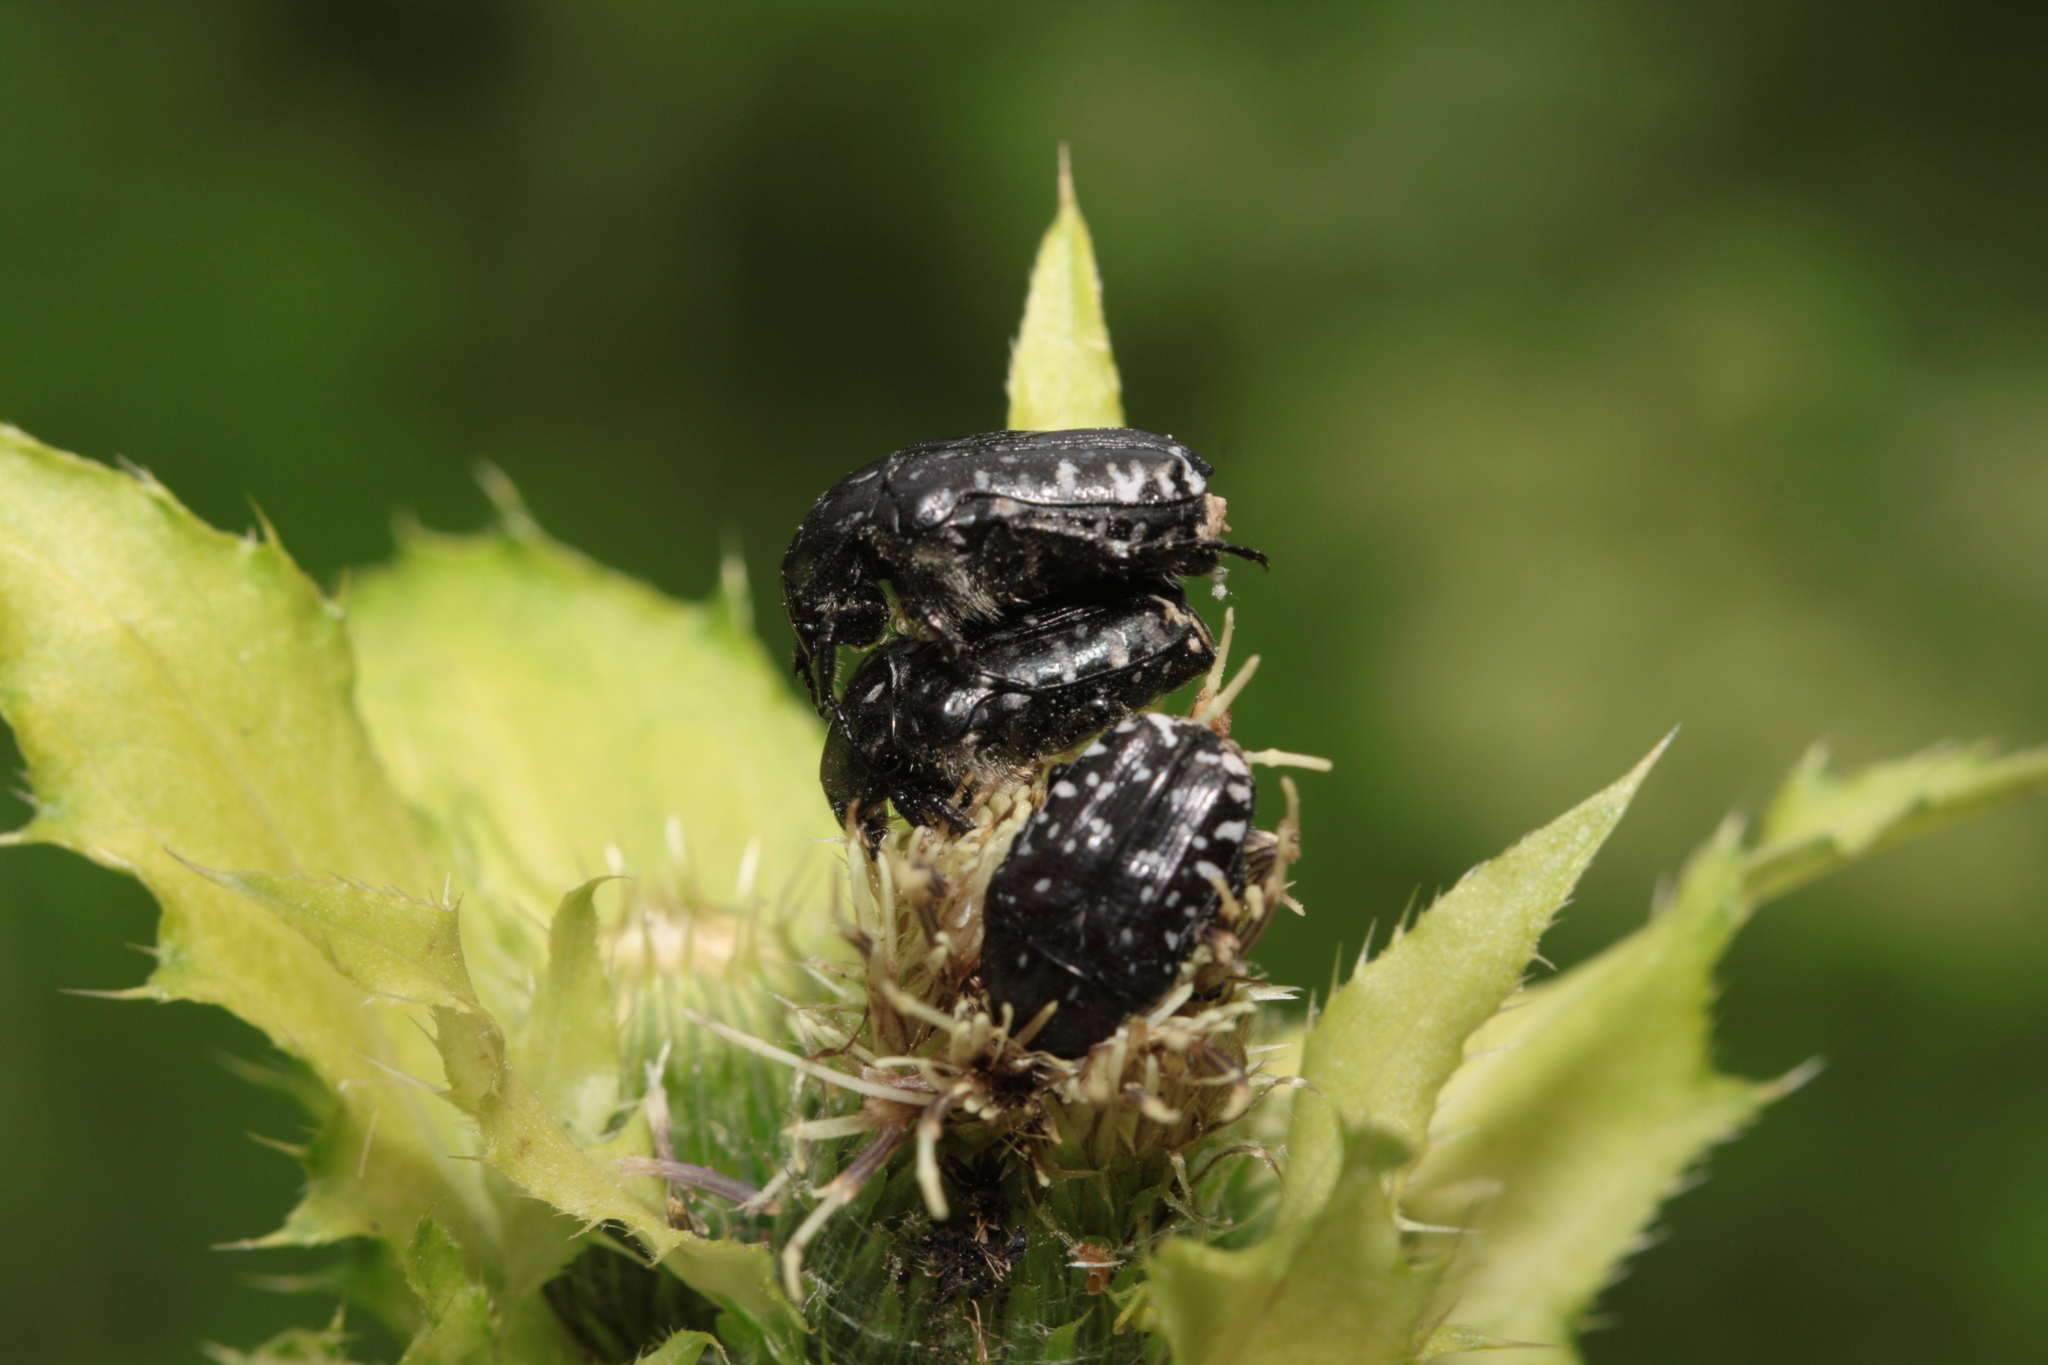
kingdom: Animalia
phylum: Arthropoda
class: Insecta
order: Coleoptera
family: Scarabaeidae
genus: Oxythyrea
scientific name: Oxythyrea funesta
